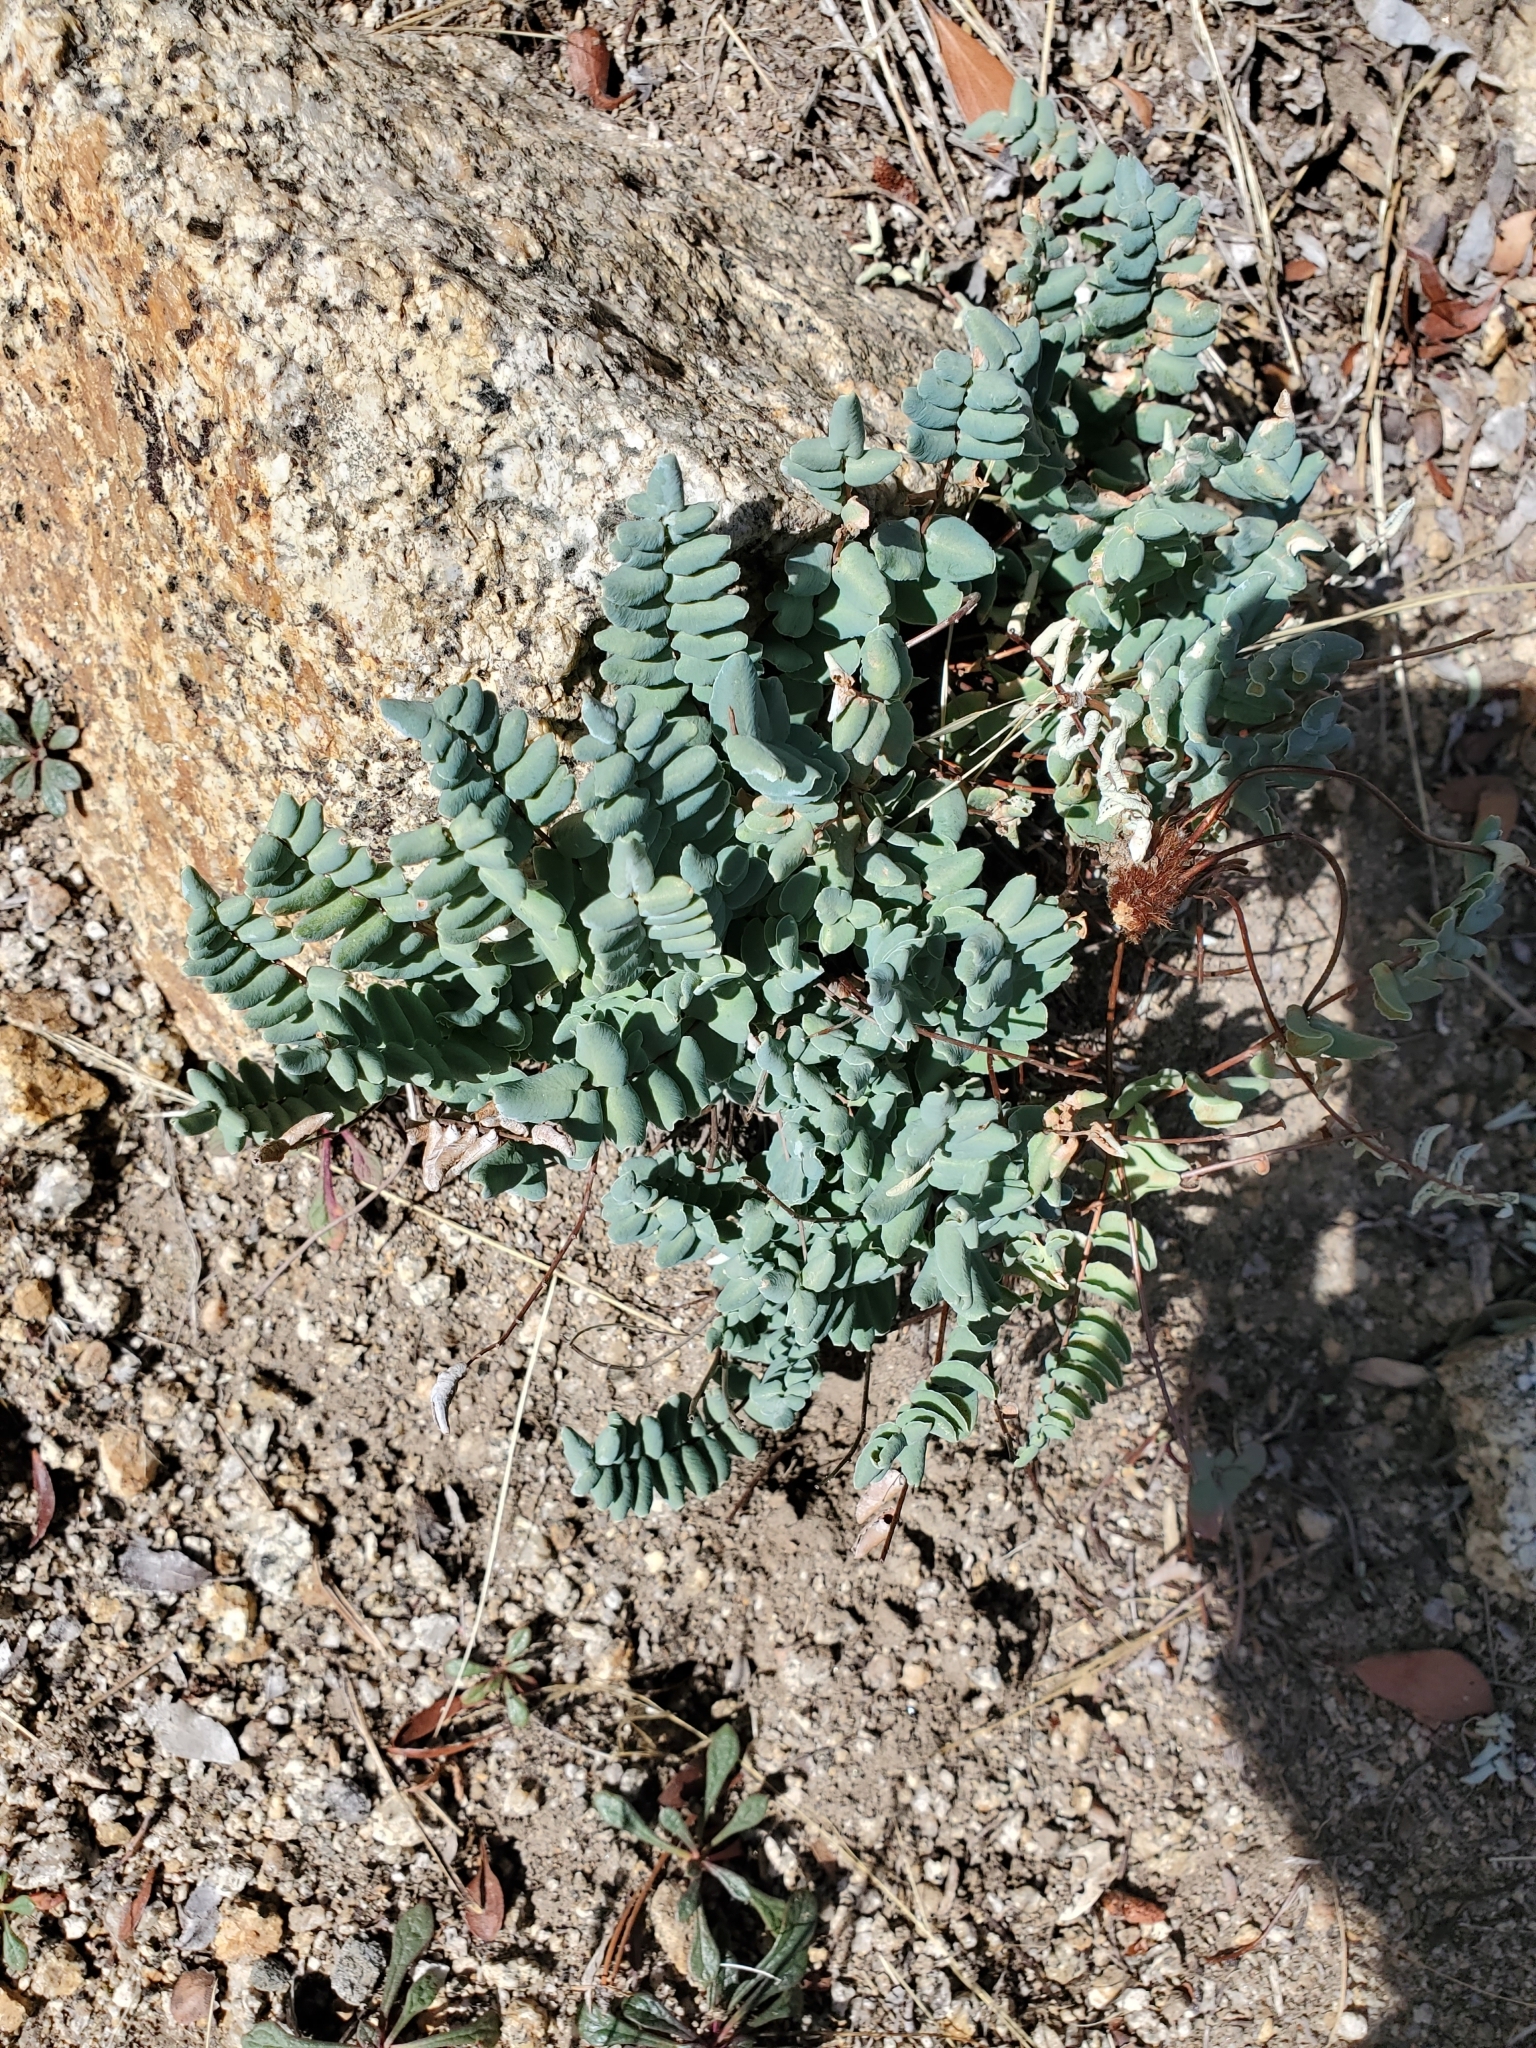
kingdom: Plantae
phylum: Tracheophyta
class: Polypodiopsida
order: Polypodiales
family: Pteridaceae
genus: Pellaea
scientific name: Pellaea bridgesii
